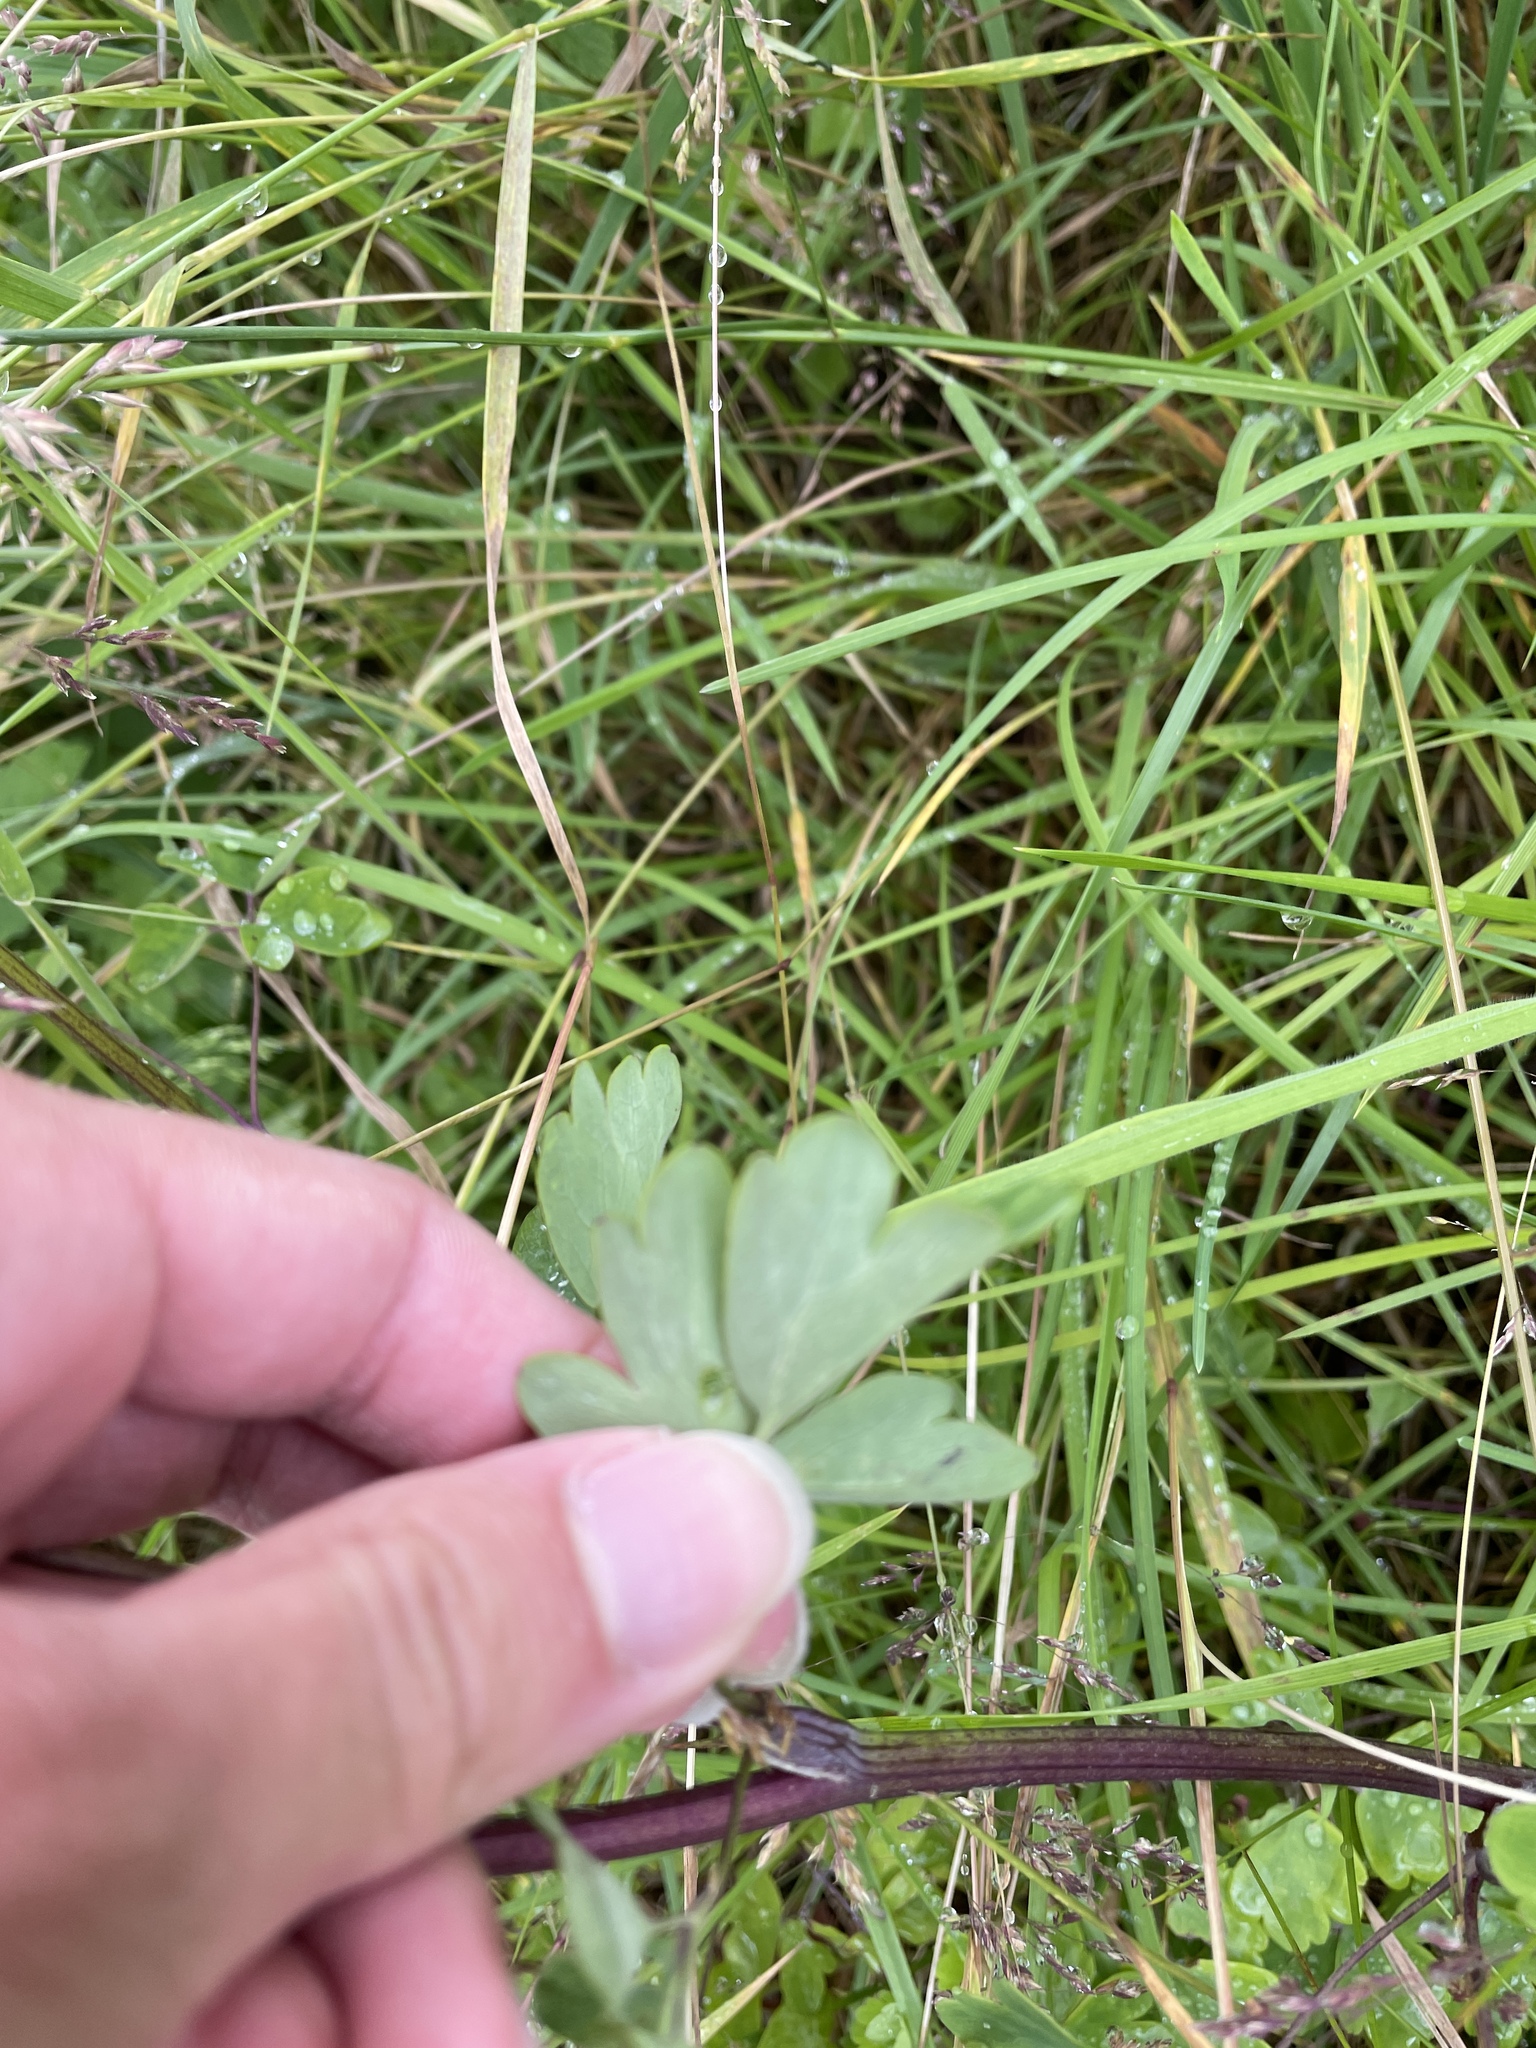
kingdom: Plantae
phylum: Tracheophyta
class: Magnoliopsida
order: Ranunculales
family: Ranunculaceae
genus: Aquilegia
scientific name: Aquilegia vulgaris
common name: Columbine
